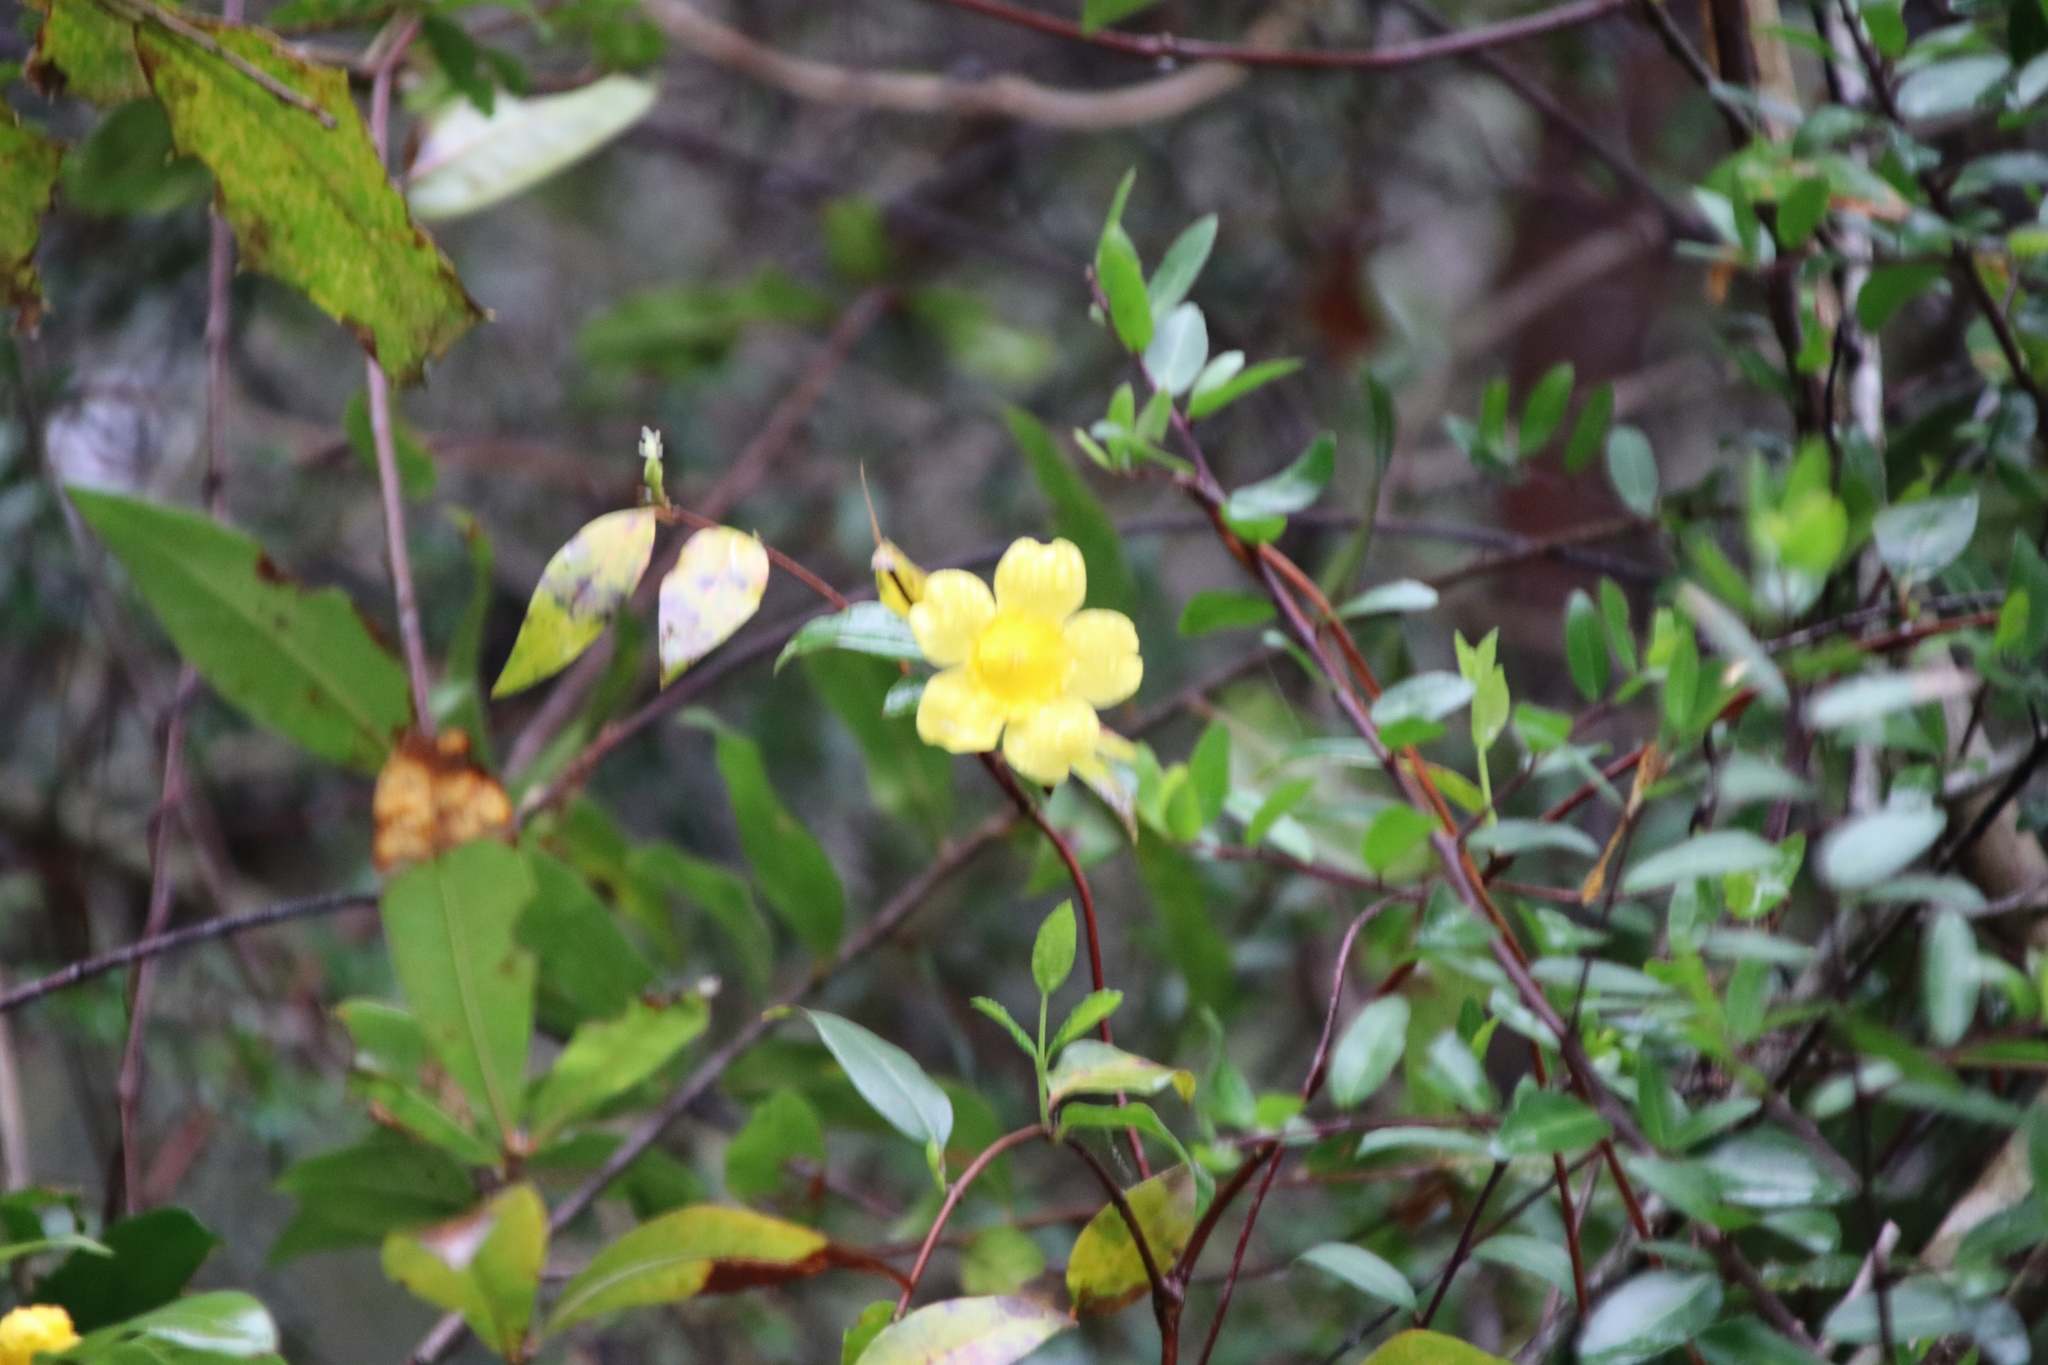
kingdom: Plantae
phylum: Tracheophyta
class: Magnoliopsida
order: Gentianales
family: Gelsemiaceae
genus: Gelsemium
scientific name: Gelsemium sempervirens
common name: Carolina-jasmine
